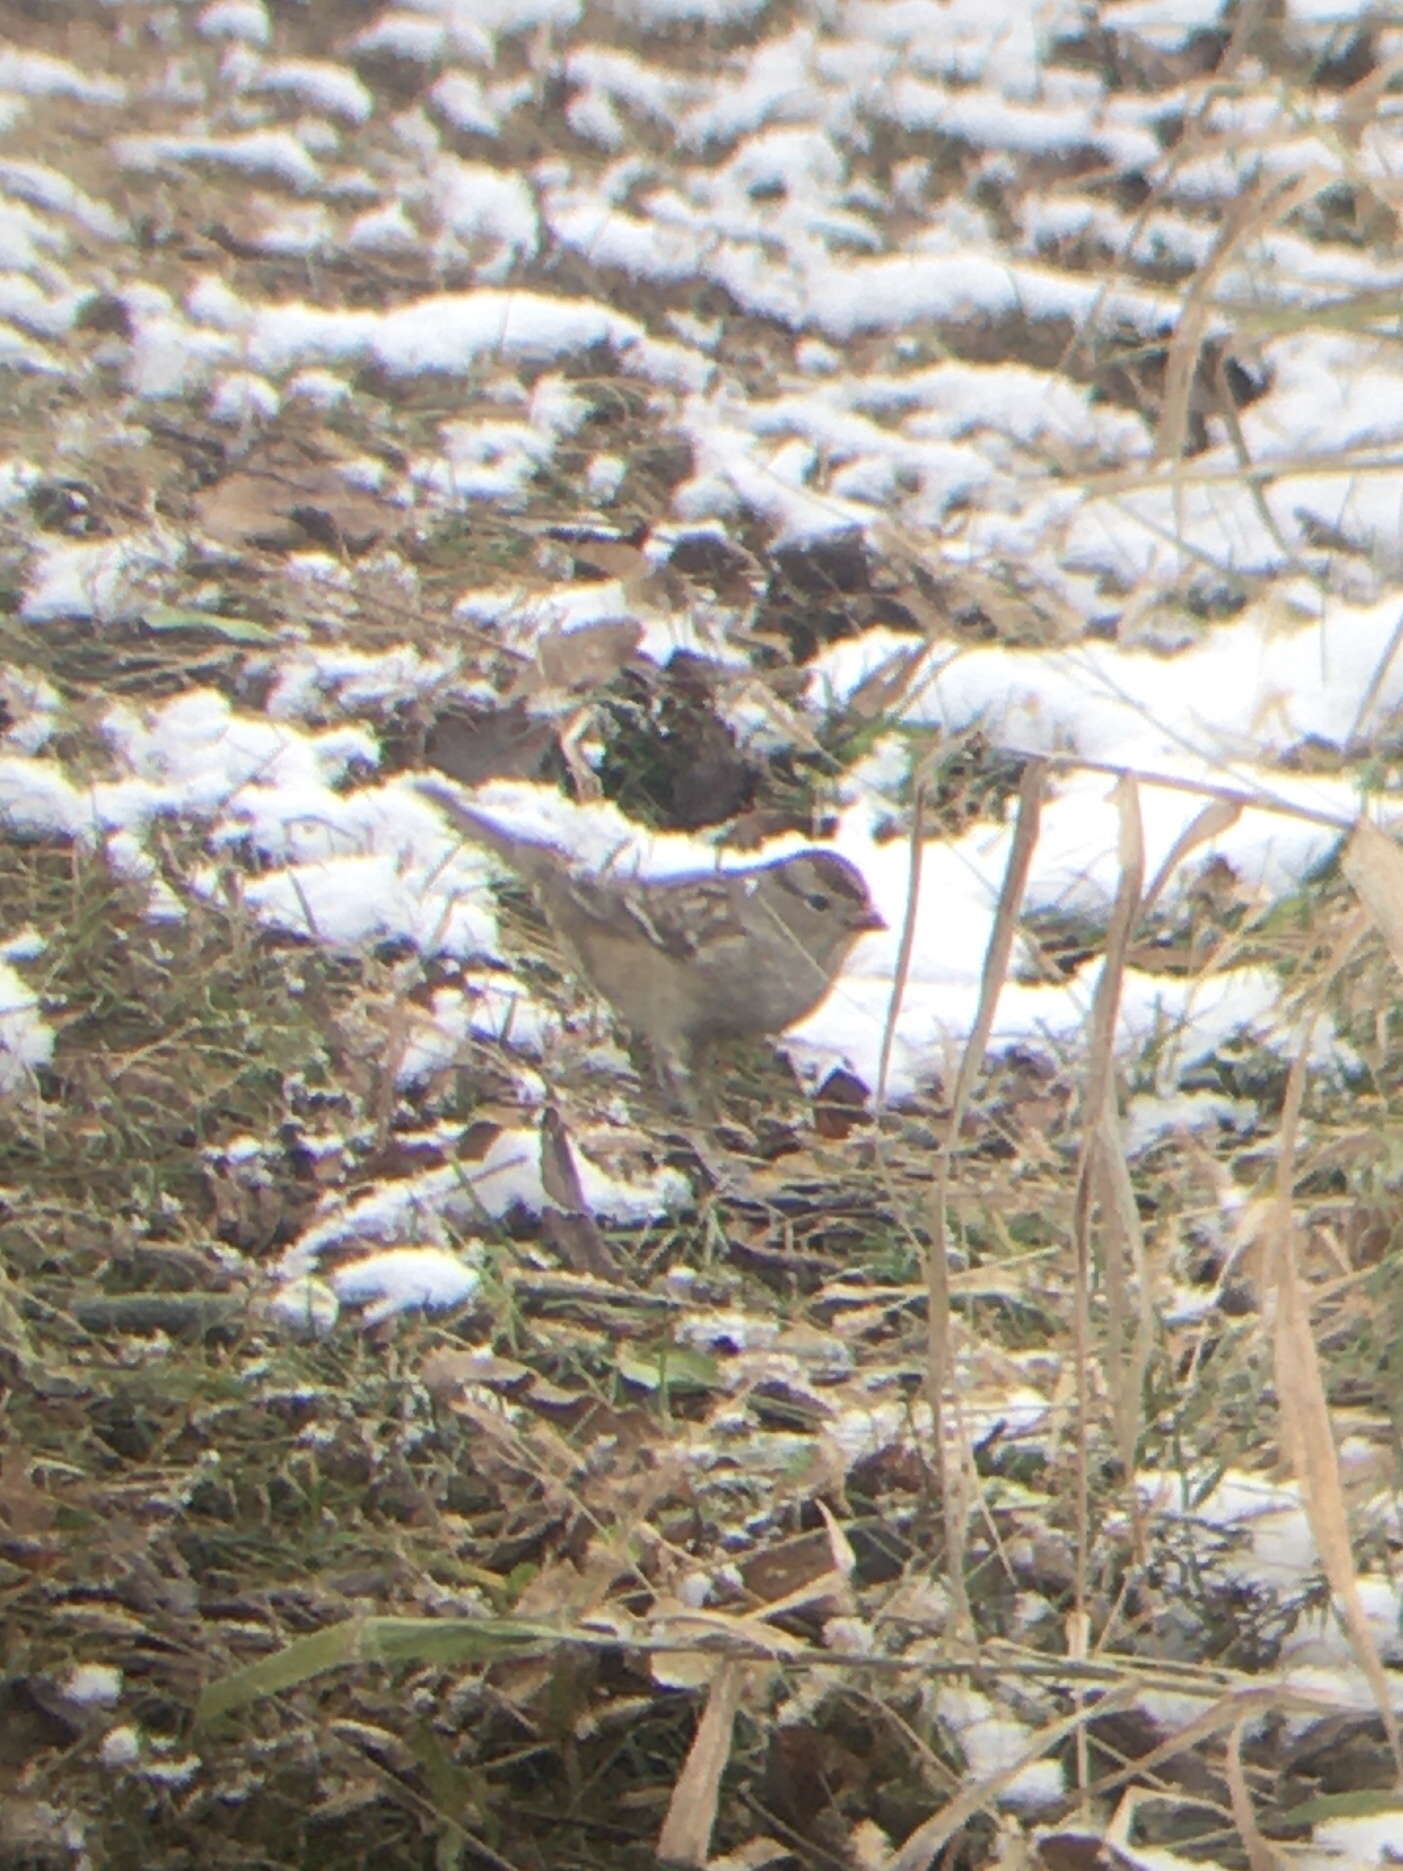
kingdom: Animalia
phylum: Chordata
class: Aves
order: Passeriformes
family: Passerellidae
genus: Zonotrichia
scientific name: Zonotrichia leucophrys
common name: White-crowned sparrow
